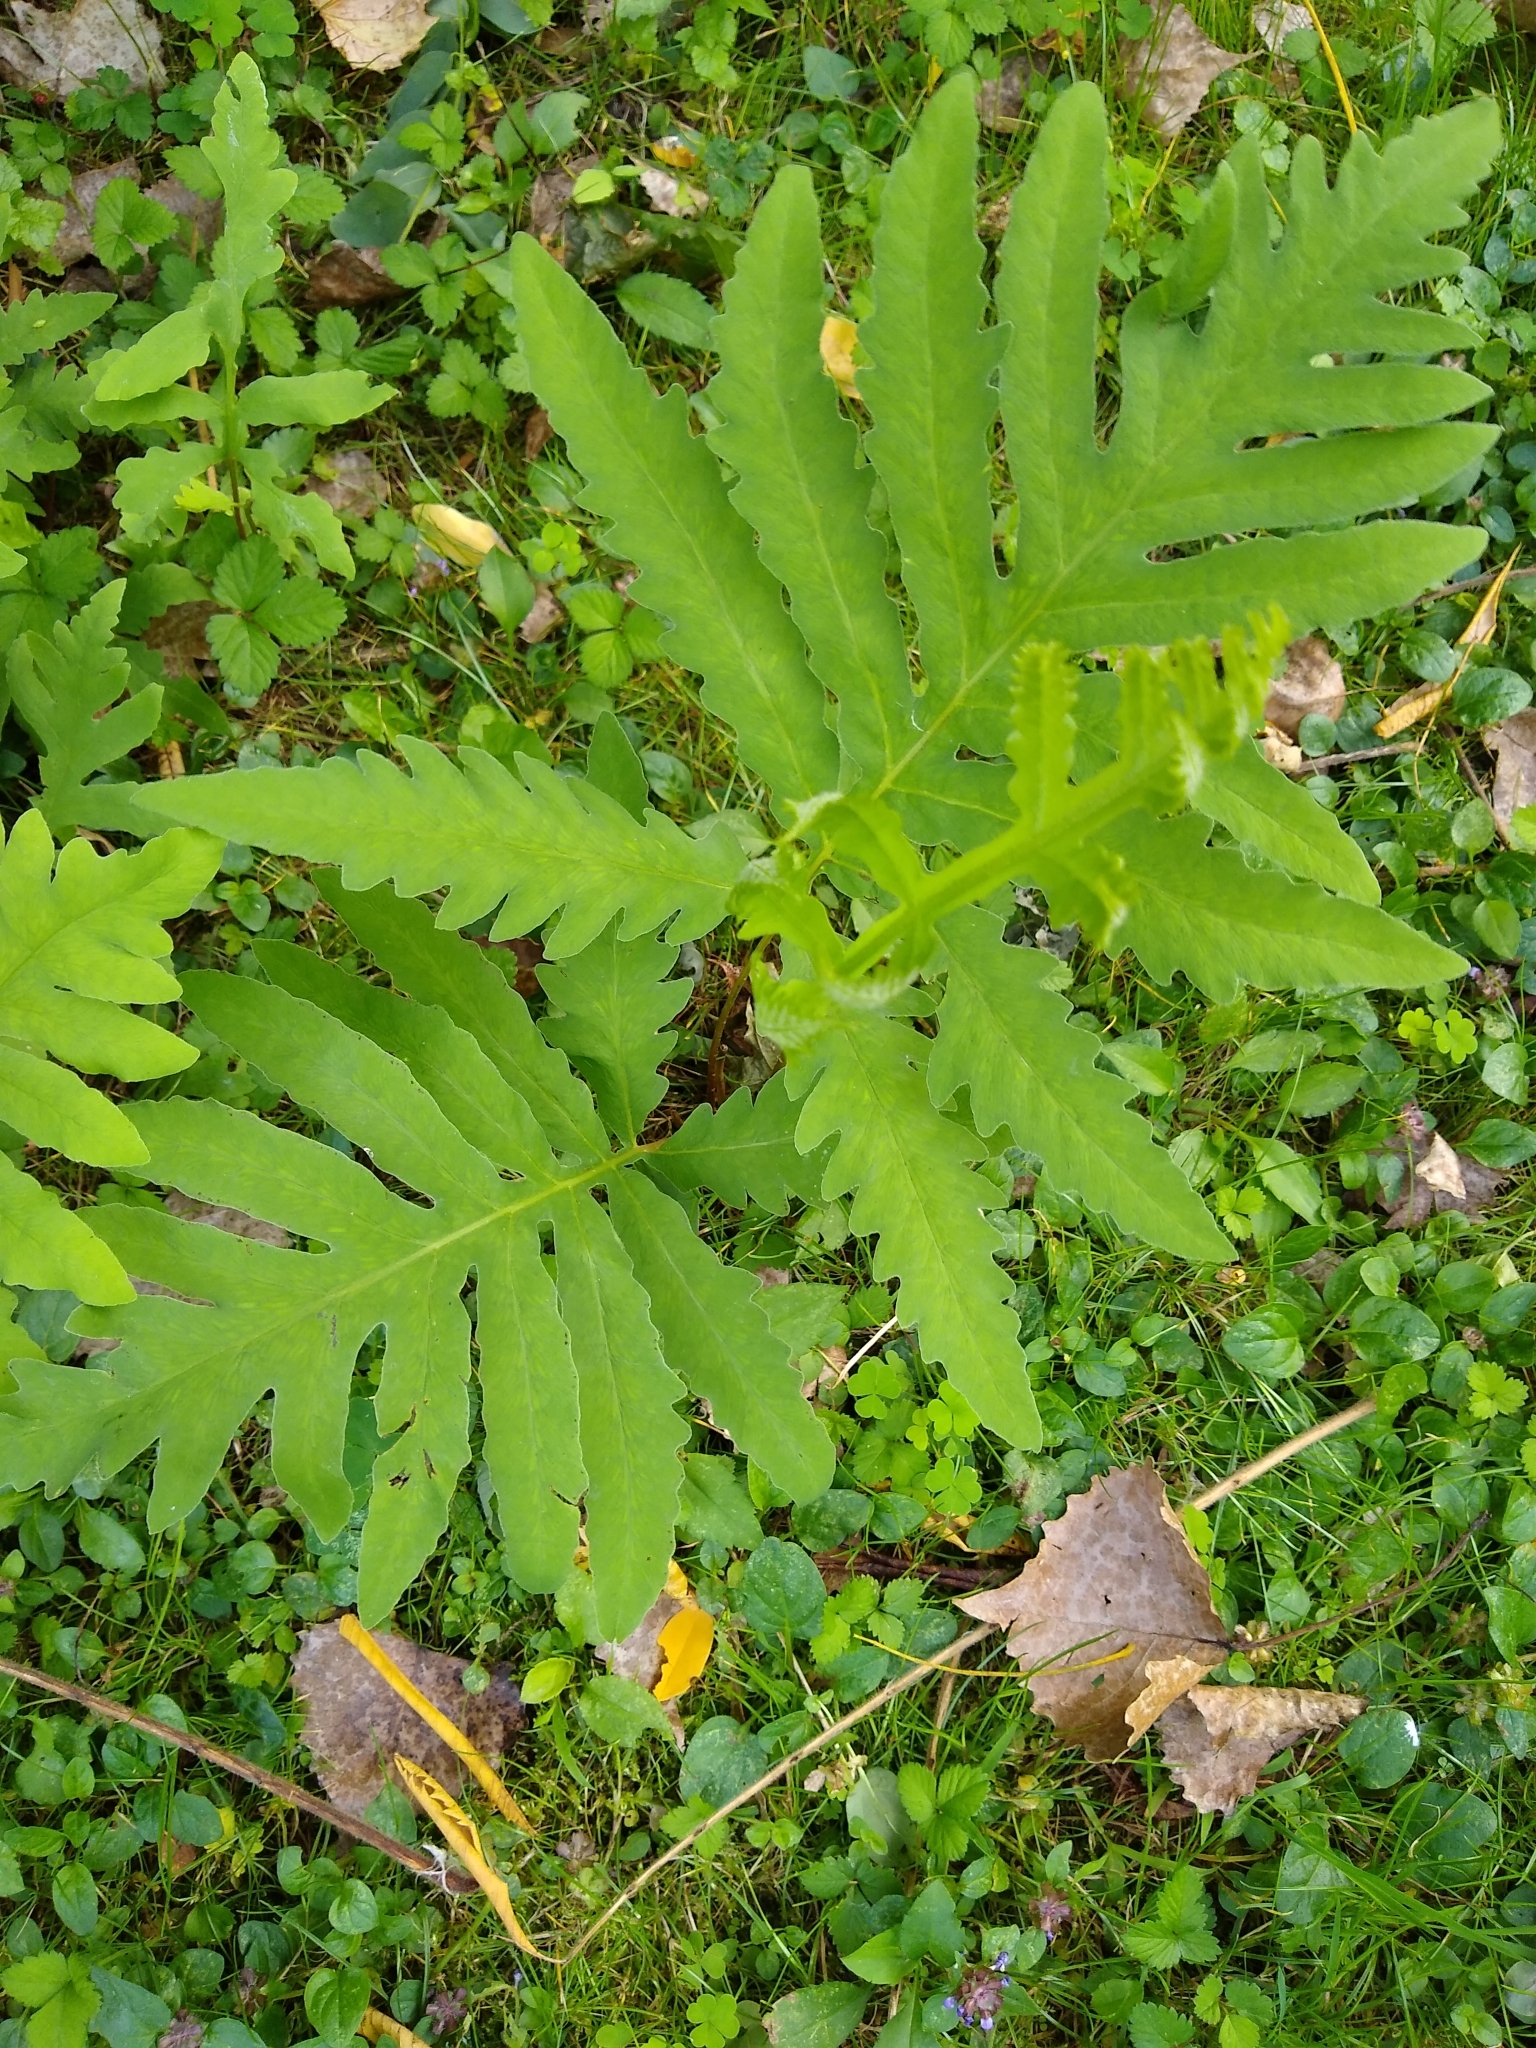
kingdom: Plantae
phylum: Tracheophyta
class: Polypodiopsida
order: Polypodiales
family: Onocleaceae
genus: Onoclea
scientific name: Onoclea sensibilis
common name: Sensitive fern
